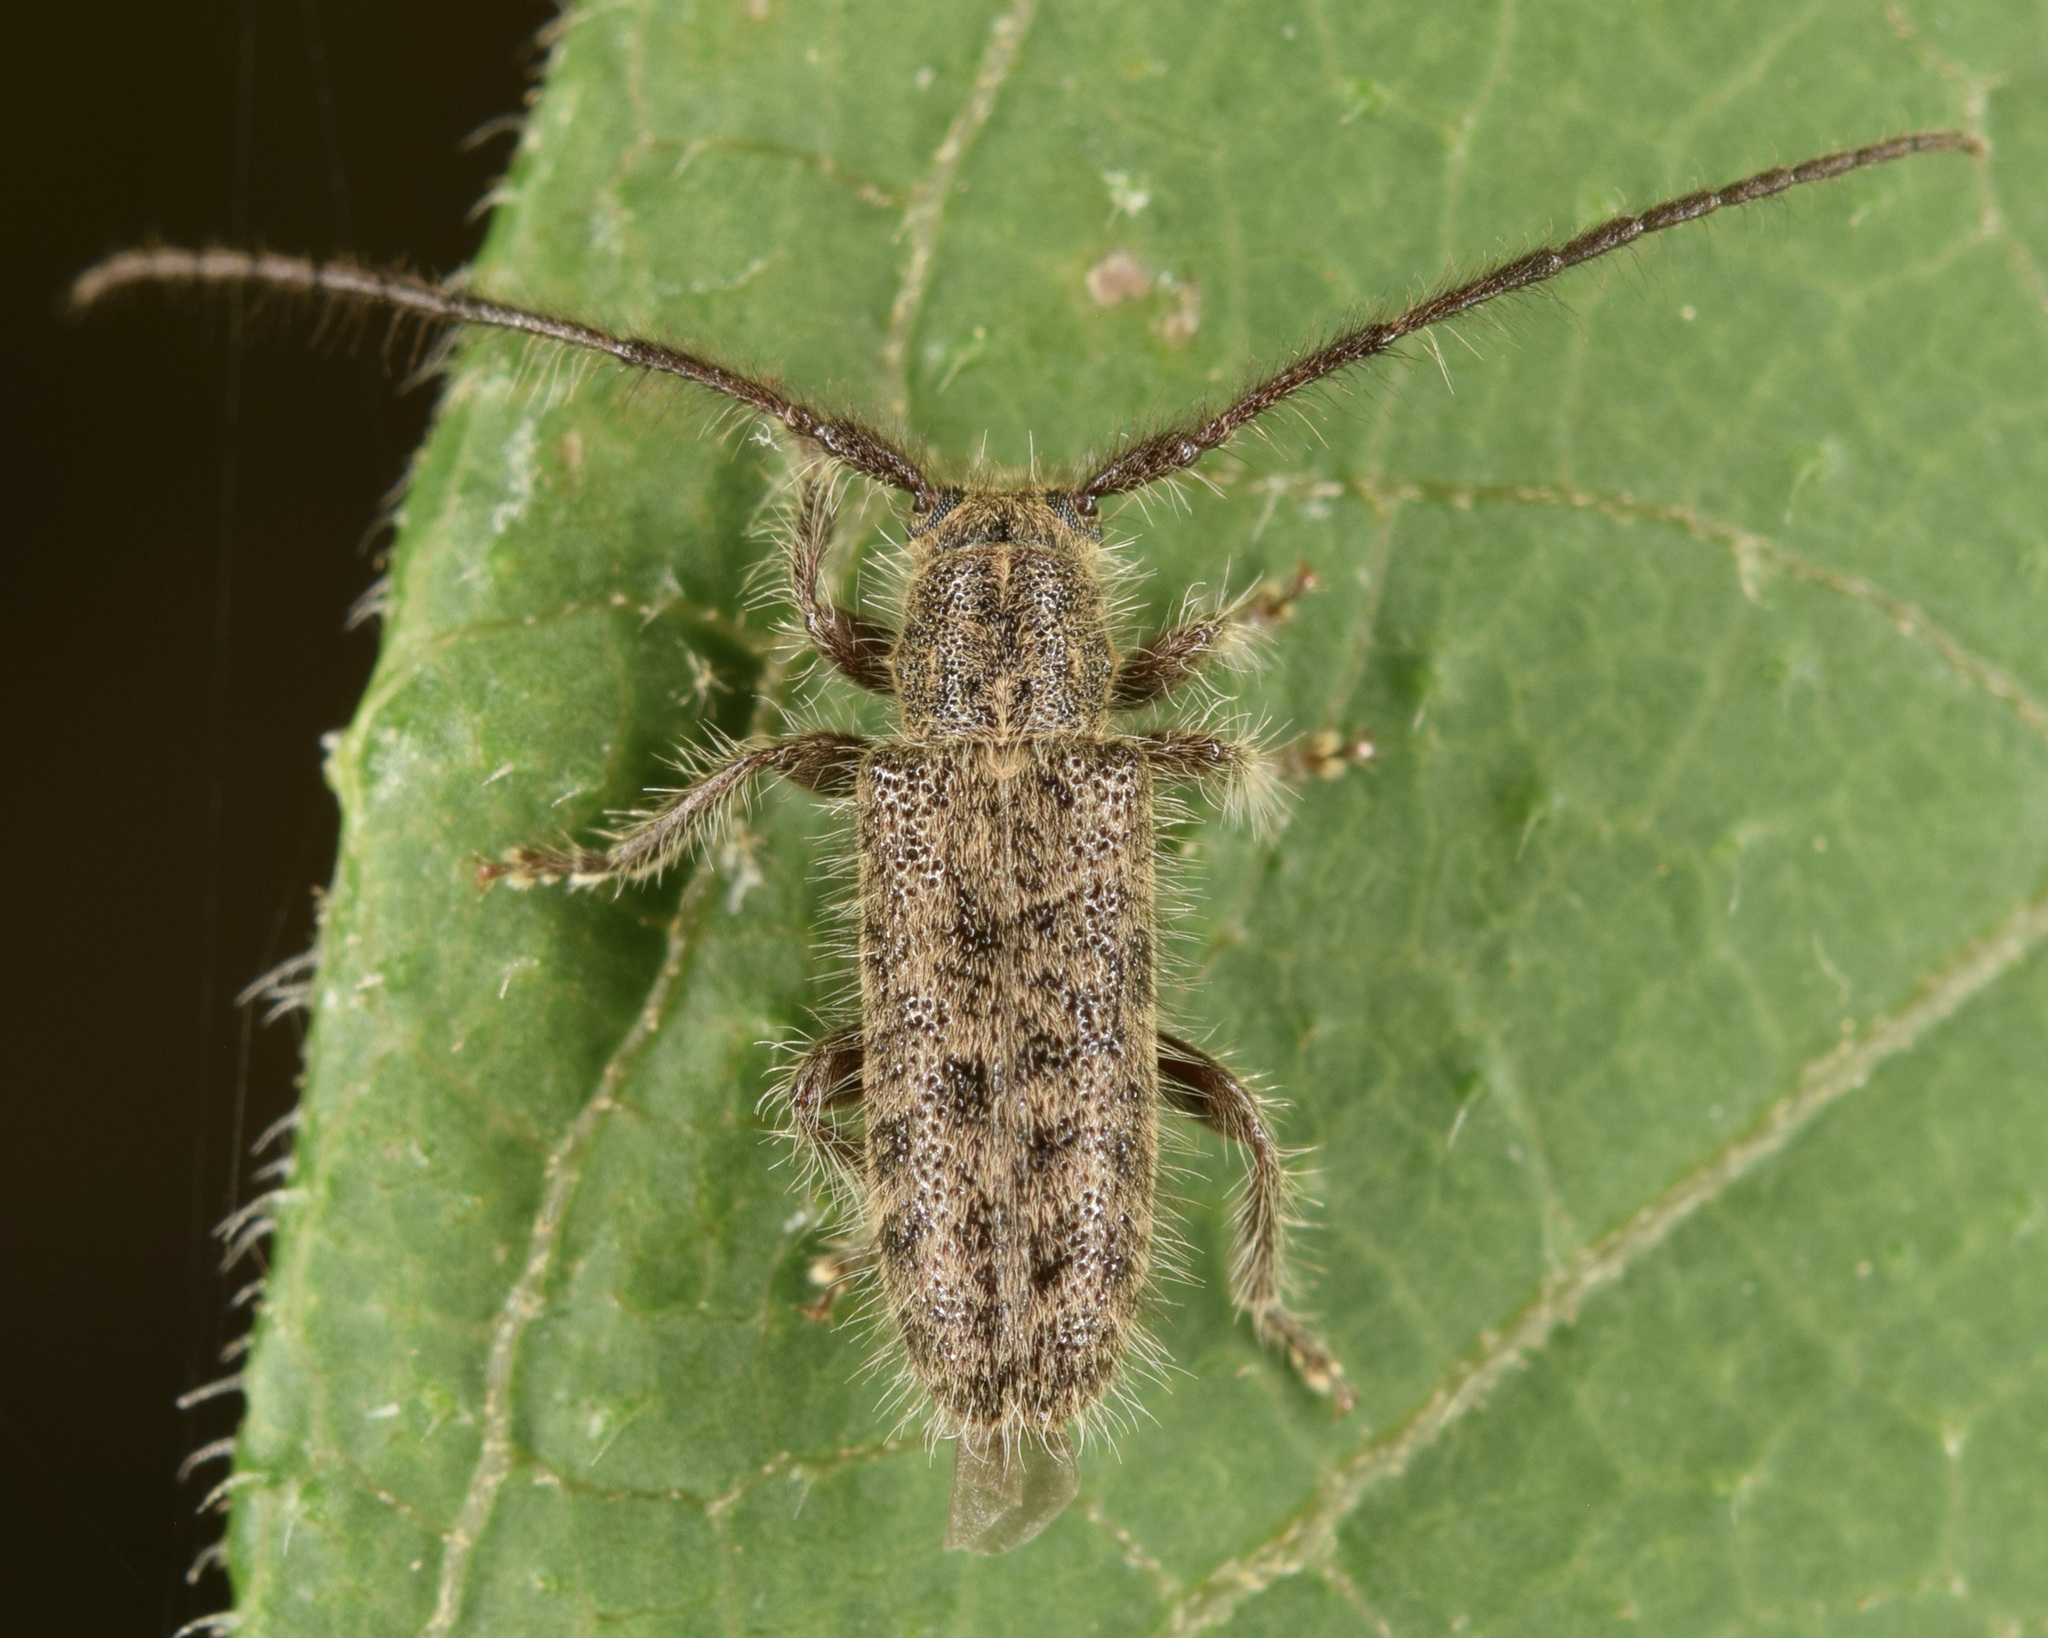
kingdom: Animalia
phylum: Arthropoda
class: Insecta
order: Coleoptera
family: Cerambycidae
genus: Eupogonius
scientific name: Eupogonius pauper
